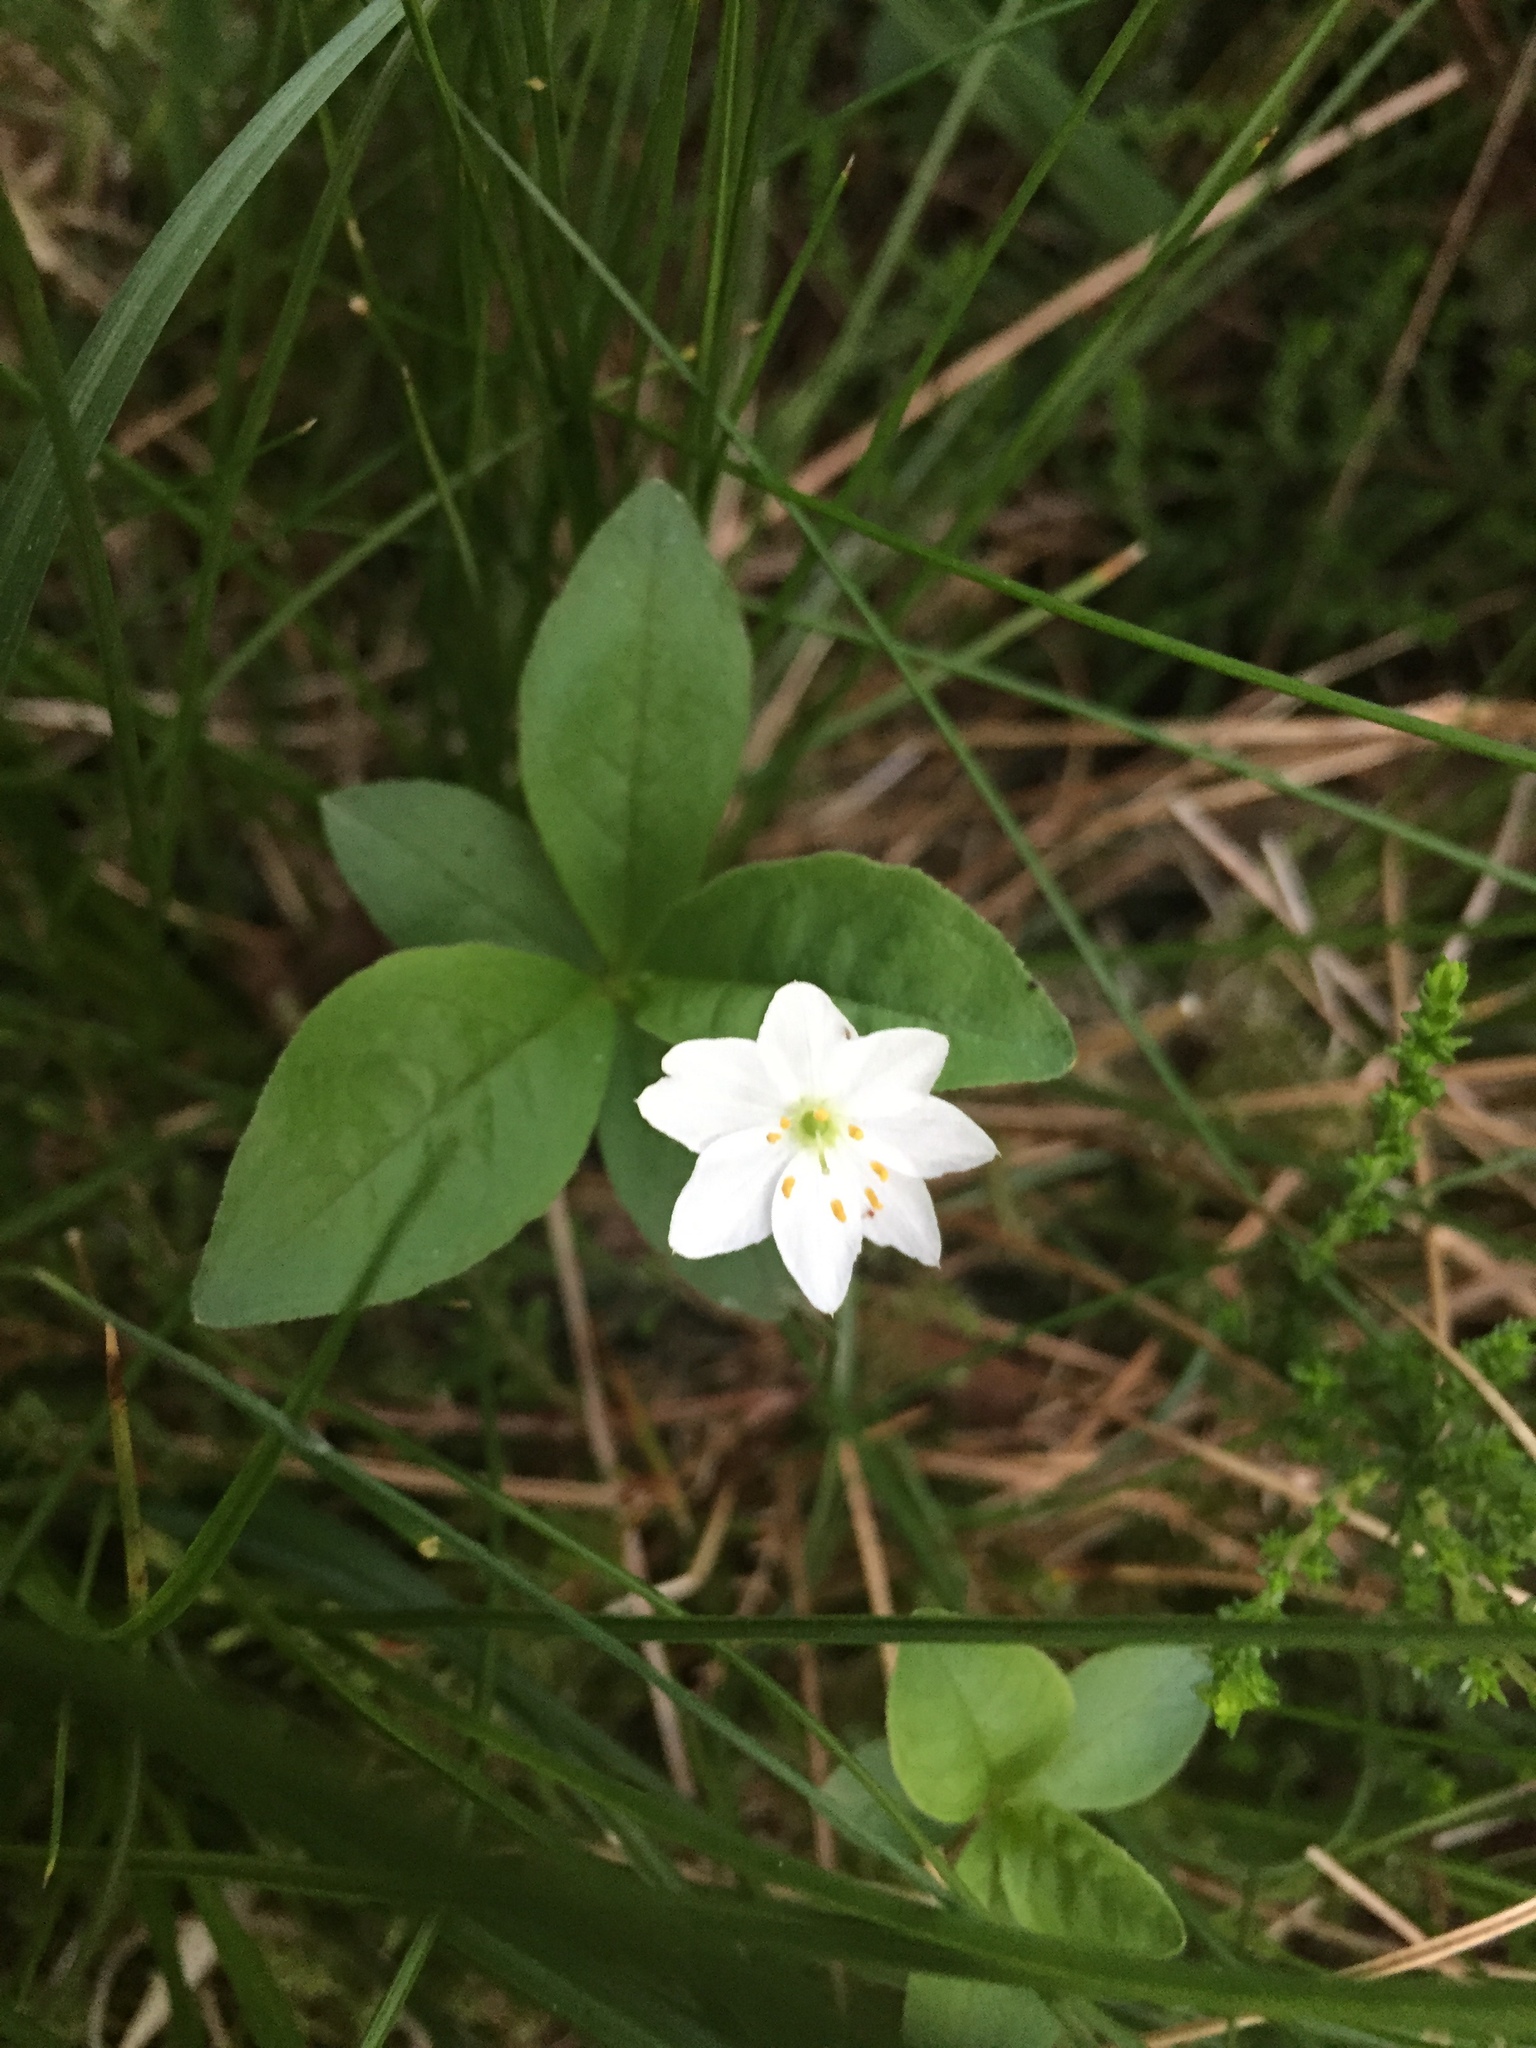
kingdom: Plantae
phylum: Tracheophyta
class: Magnoliopsida
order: Ericales
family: Primulaceae
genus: Lysimachia
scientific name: Lysimachia europaea
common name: Arctic starflower
